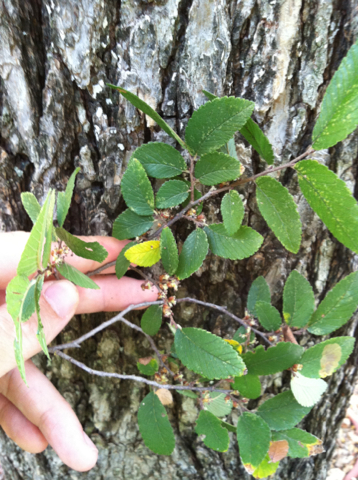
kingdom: Plantae
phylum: Tracheophyta
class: Magnoliopsida
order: Rosales
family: Ulmaceae
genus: Ulmus
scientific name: Ulmus crassifolia
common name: Basket elm
